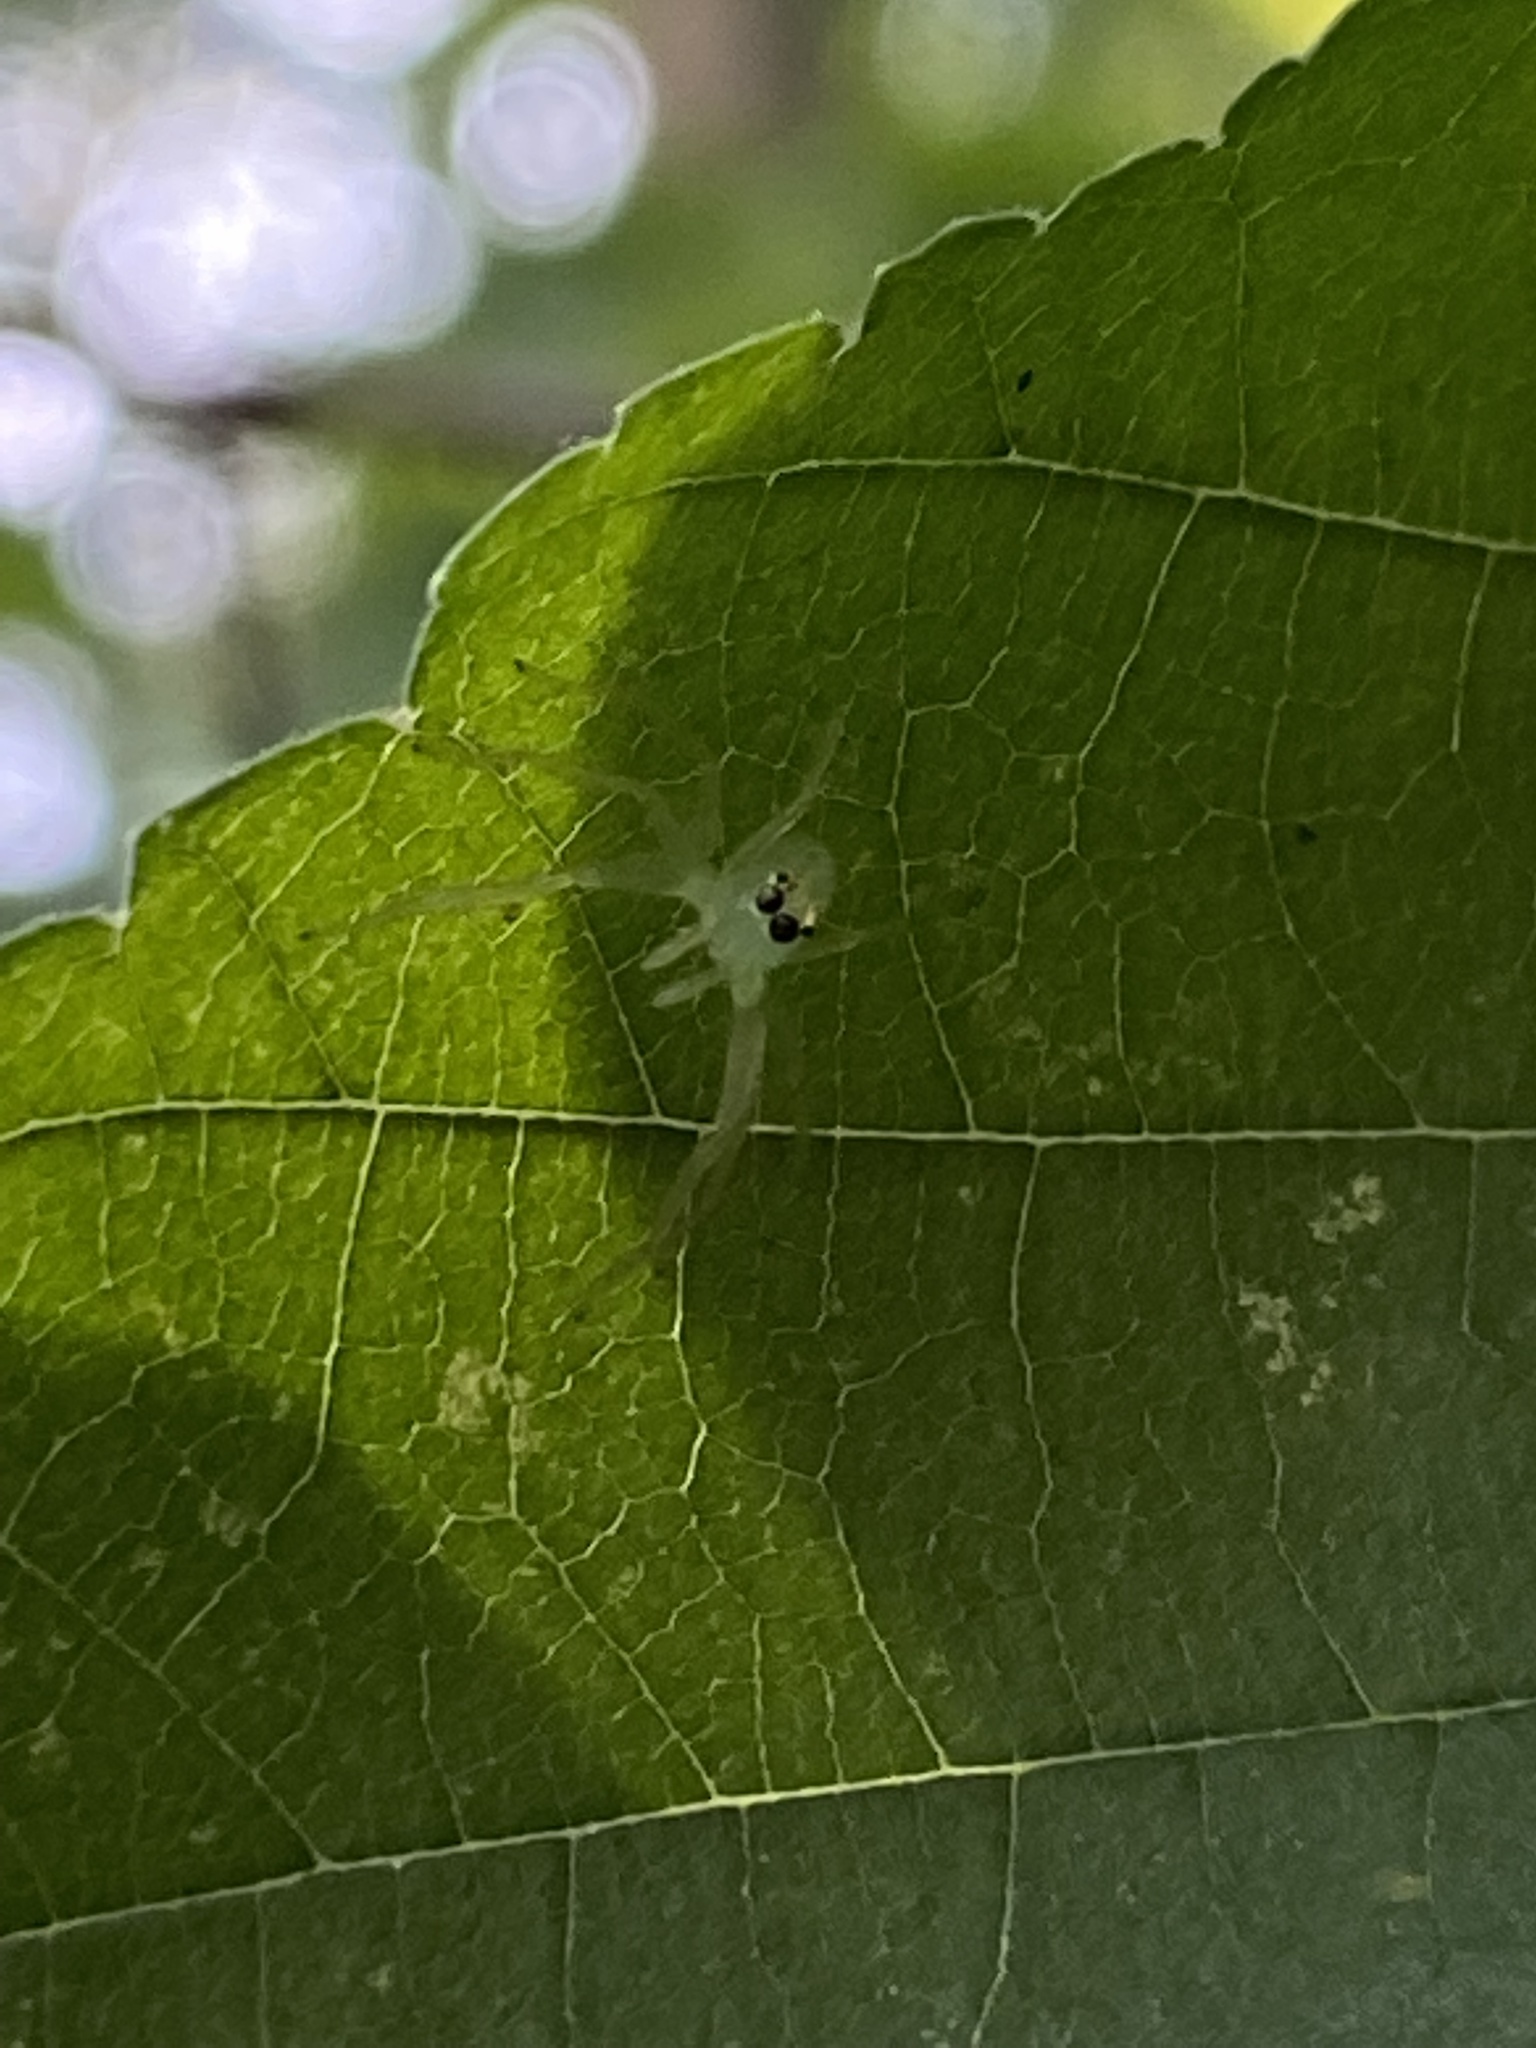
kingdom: Animalia
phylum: Arthropoda
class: Arachnida
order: Araneae
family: Salticidae
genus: Lyssomanes
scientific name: Lyssomanes viridis
